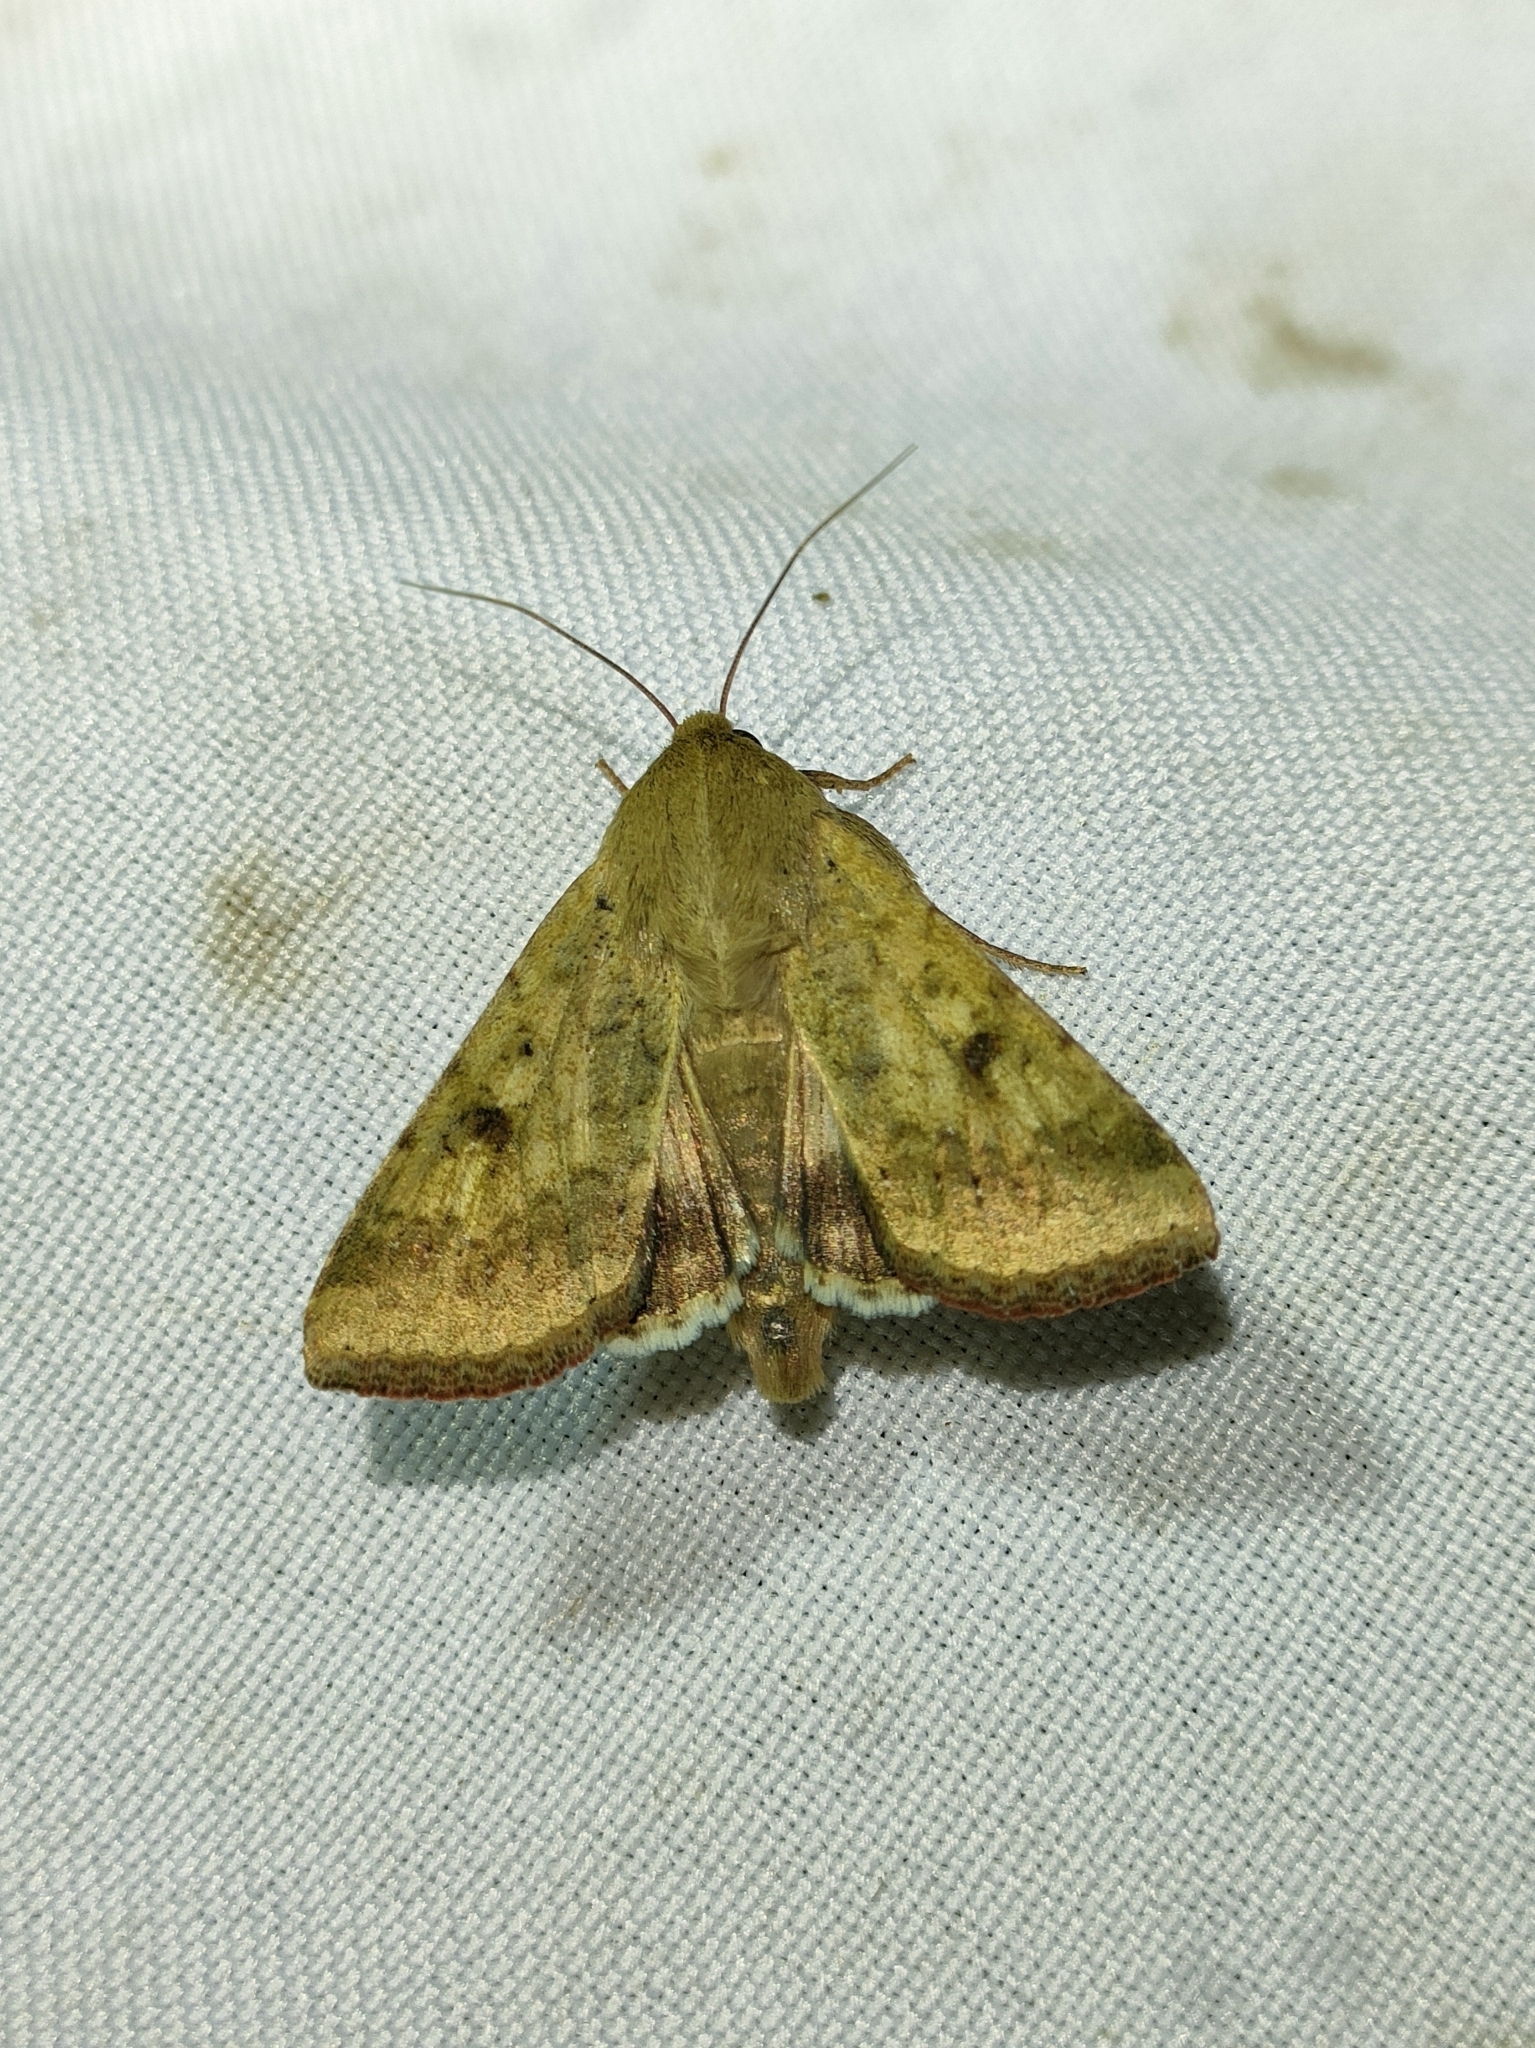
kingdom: Animalia
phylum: Arthropoda
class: Insecta
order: Lepidoptera
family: Noctuidae
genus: Helicoverpa
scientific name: Helicoverpa armigera
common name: Cotton bollworm
